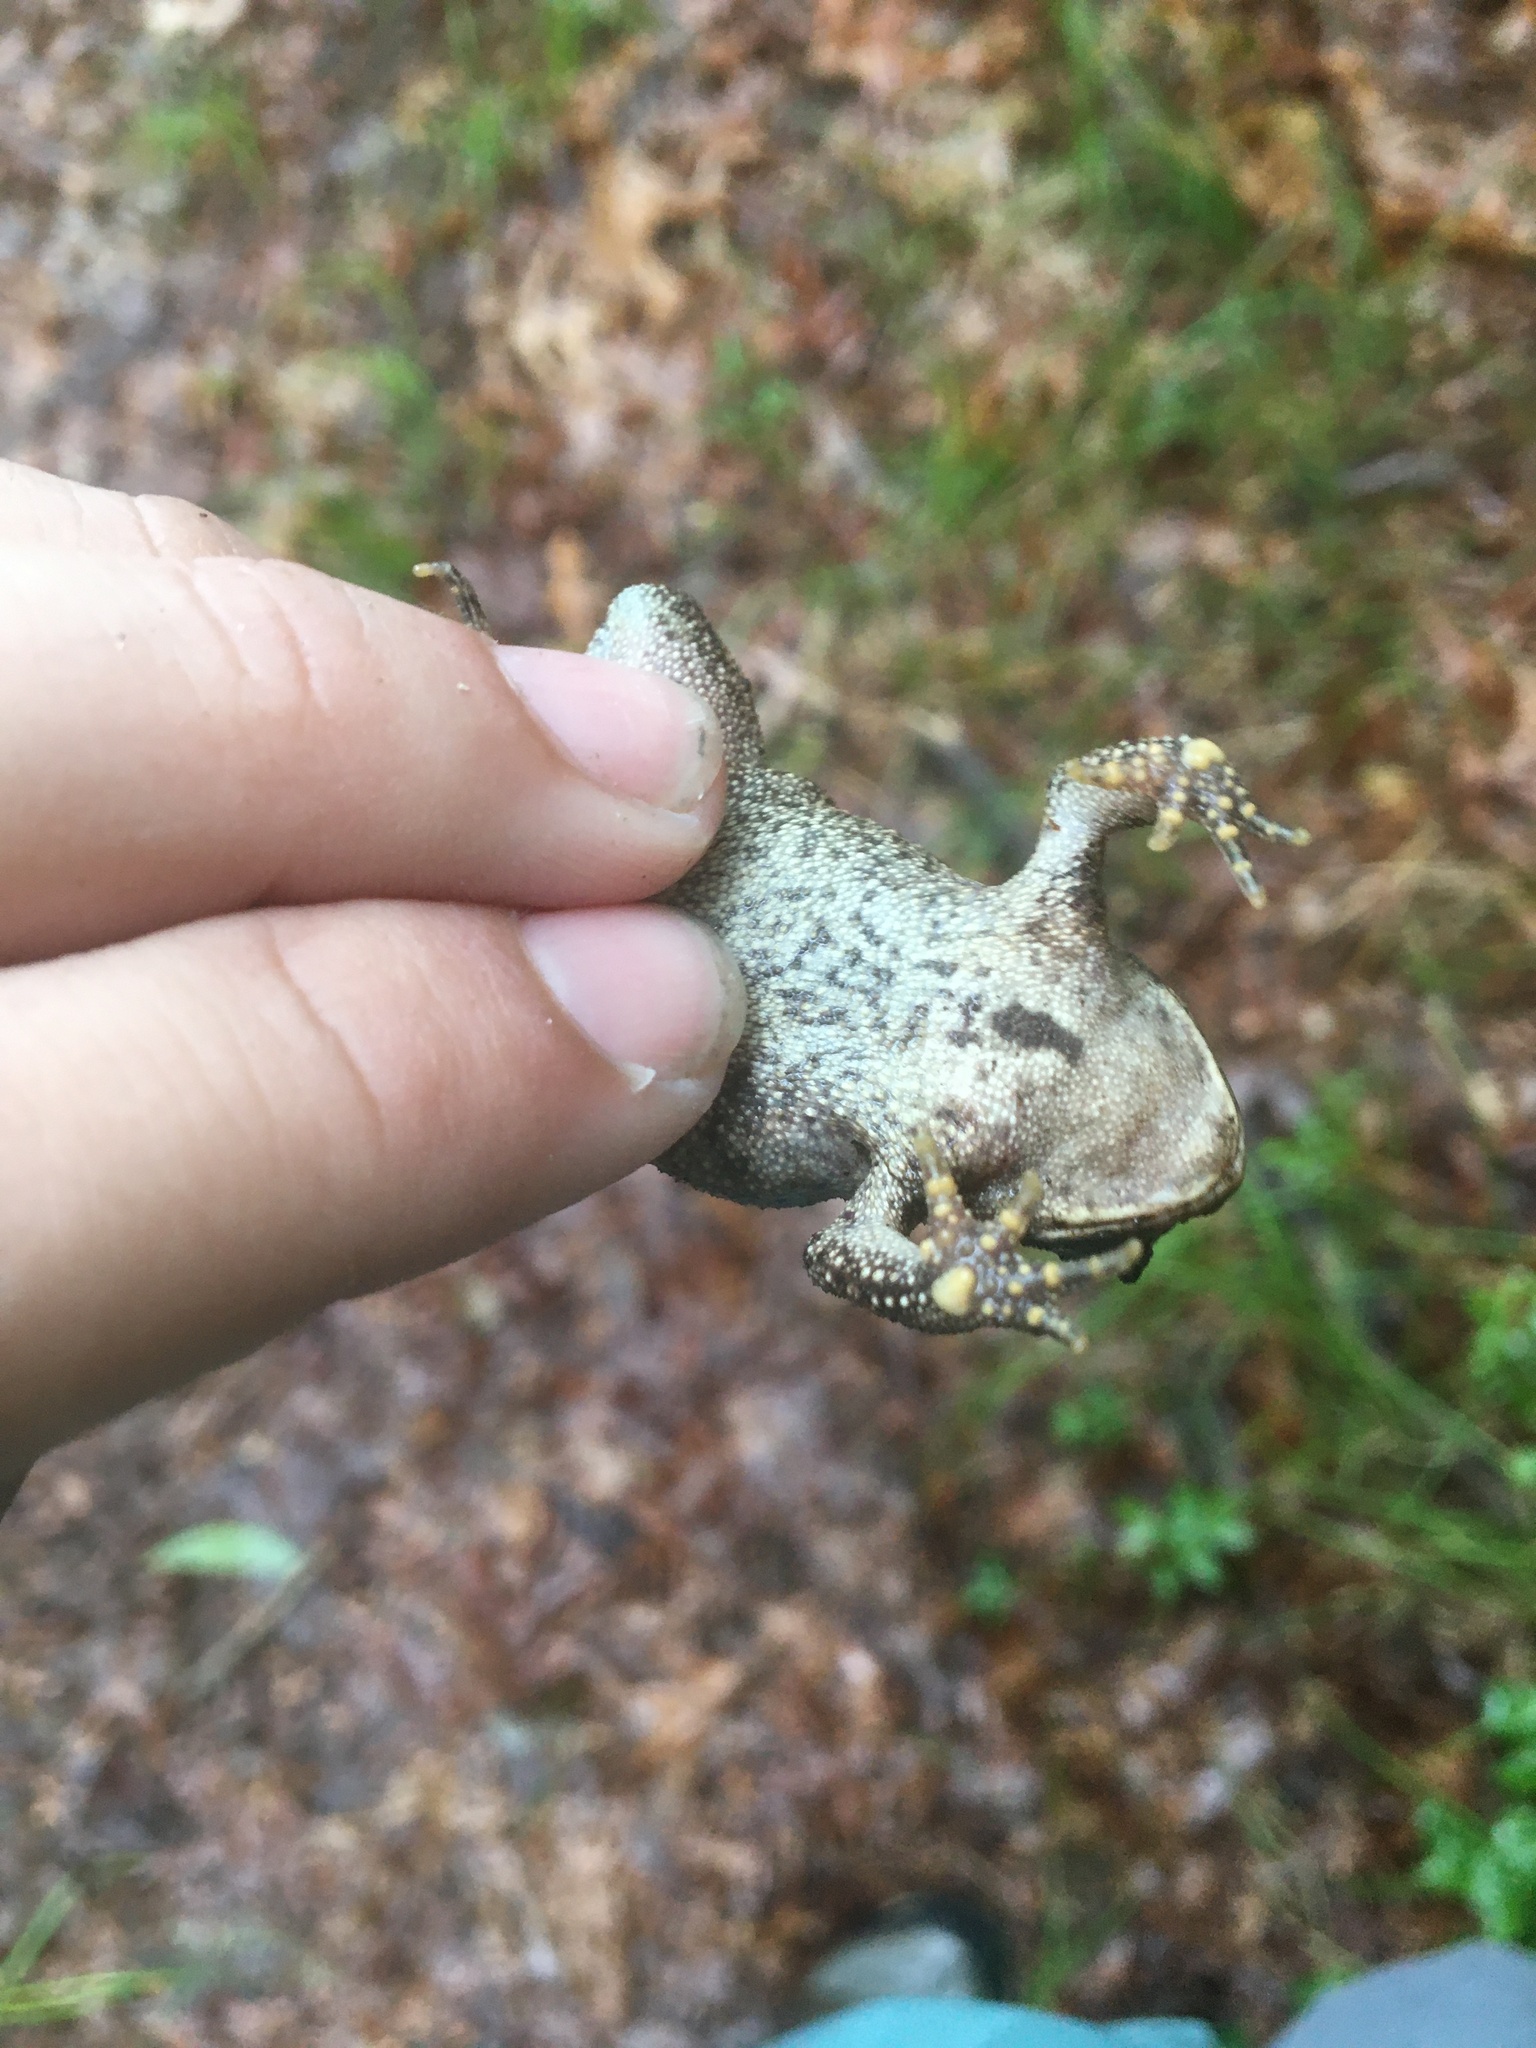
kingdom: Animalia
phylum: Chordata
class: Amphibia
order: Anura
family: Bufonidae
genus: Anaxyrus
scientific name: Anaxyrus americanus
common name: American toad
